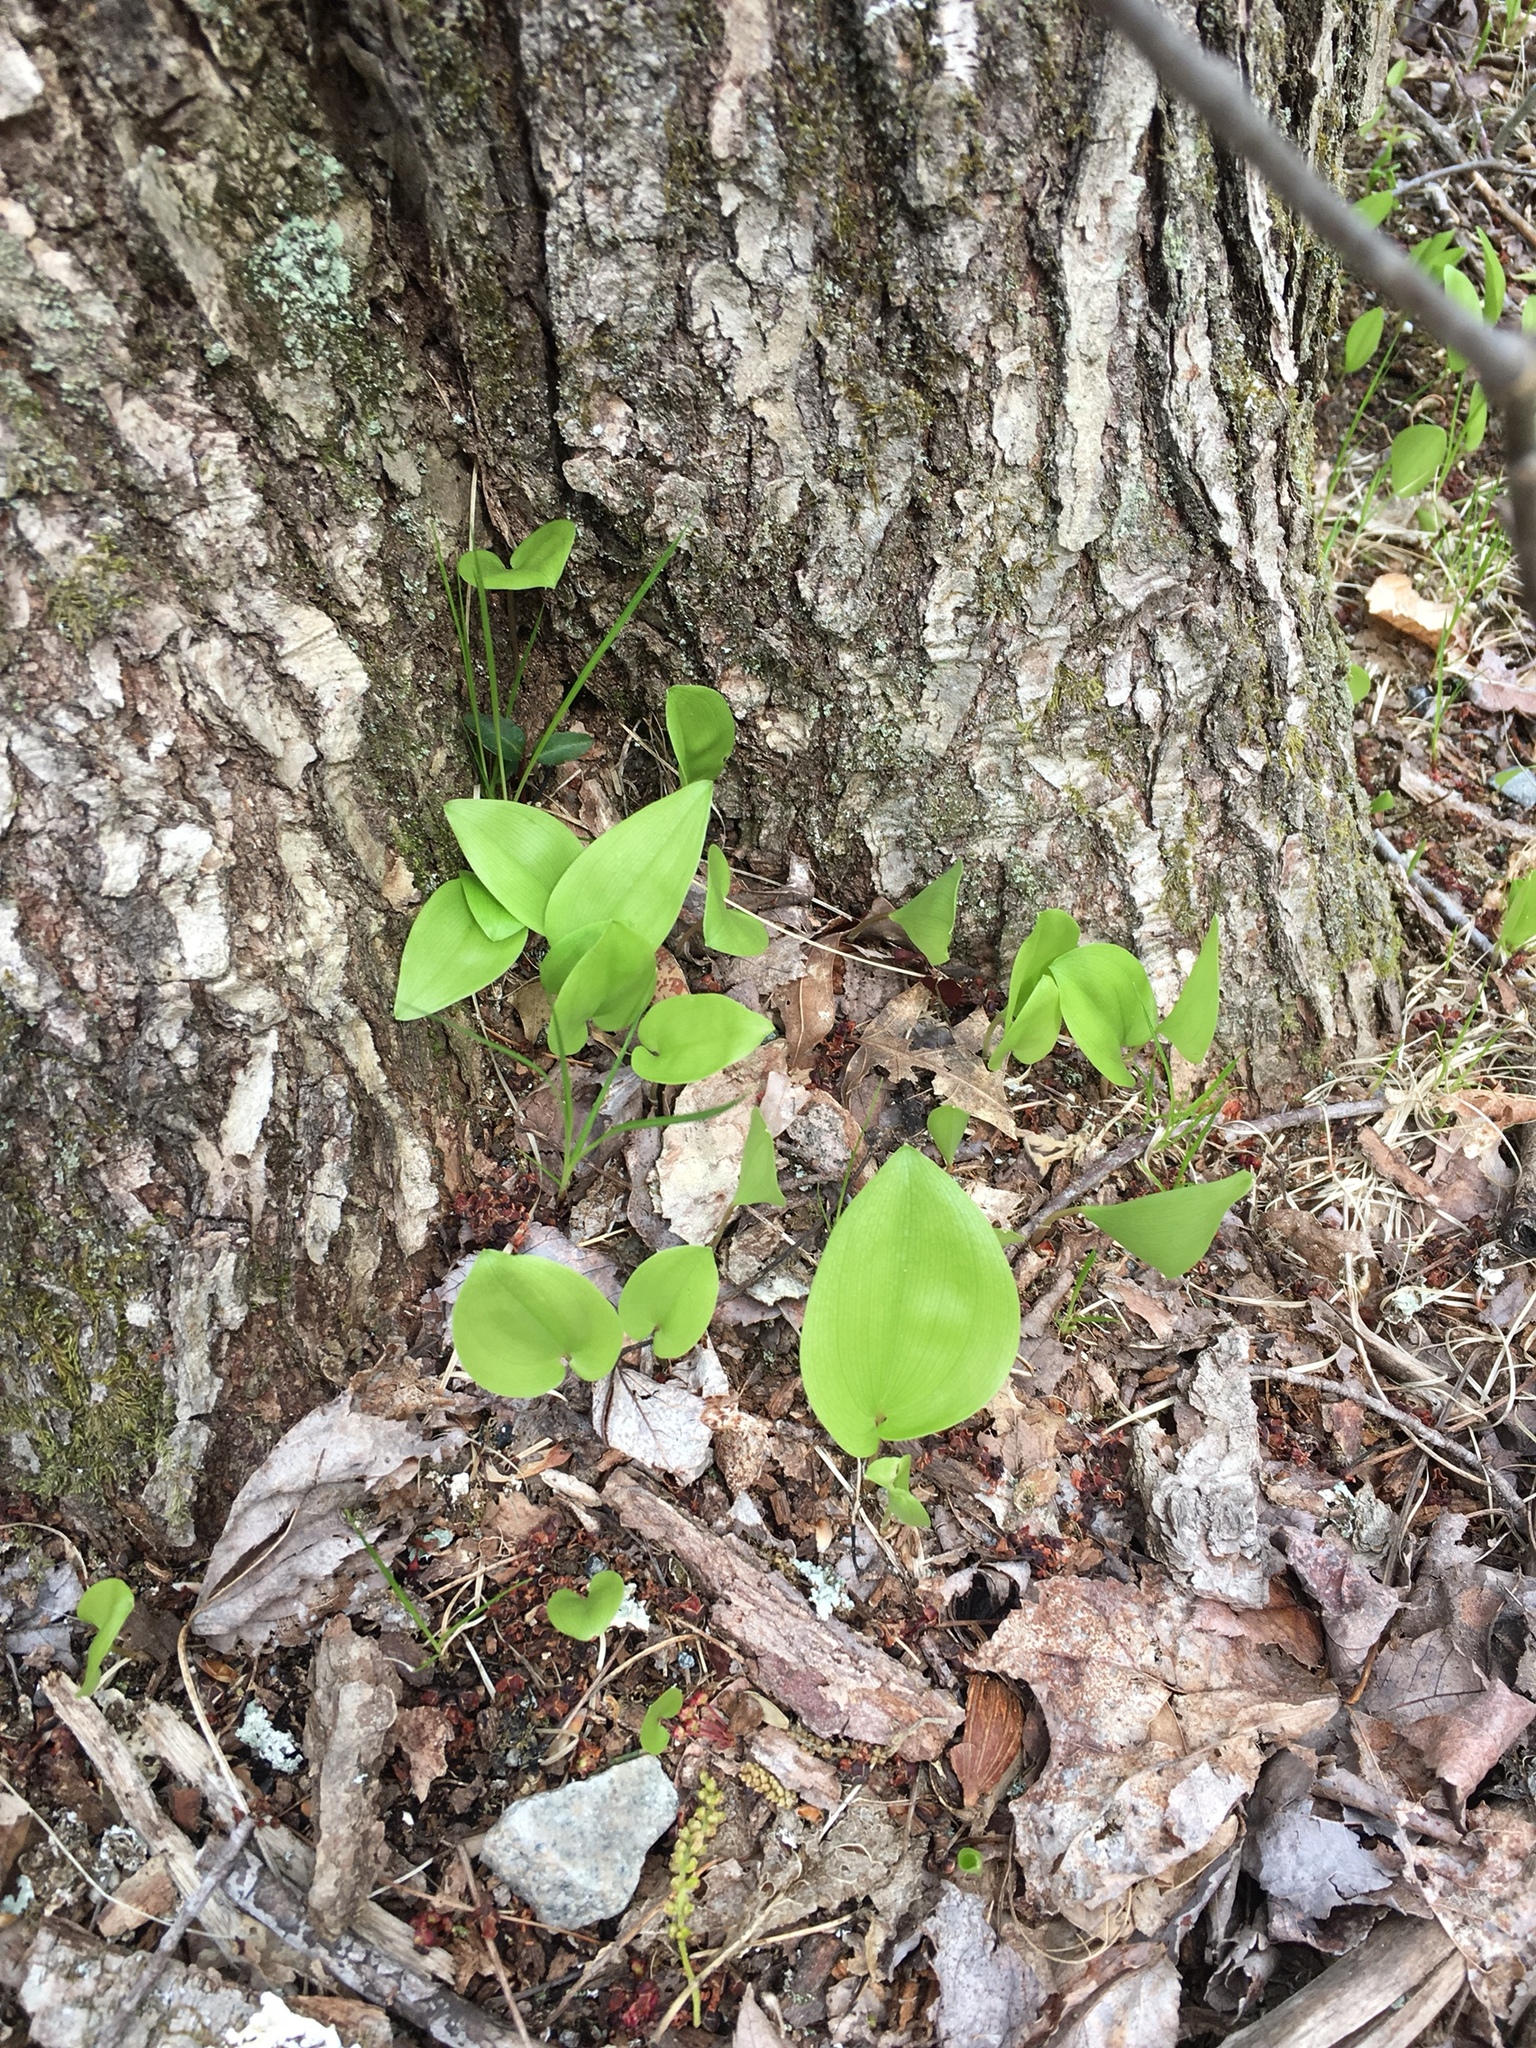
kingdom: Plantae
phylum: Tracheophyta
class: Liliopsida
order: Asparagales
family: Asparagaceae
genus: Maianthemum
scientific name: Maianthemum canadense
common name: False lily-of-the-valley
